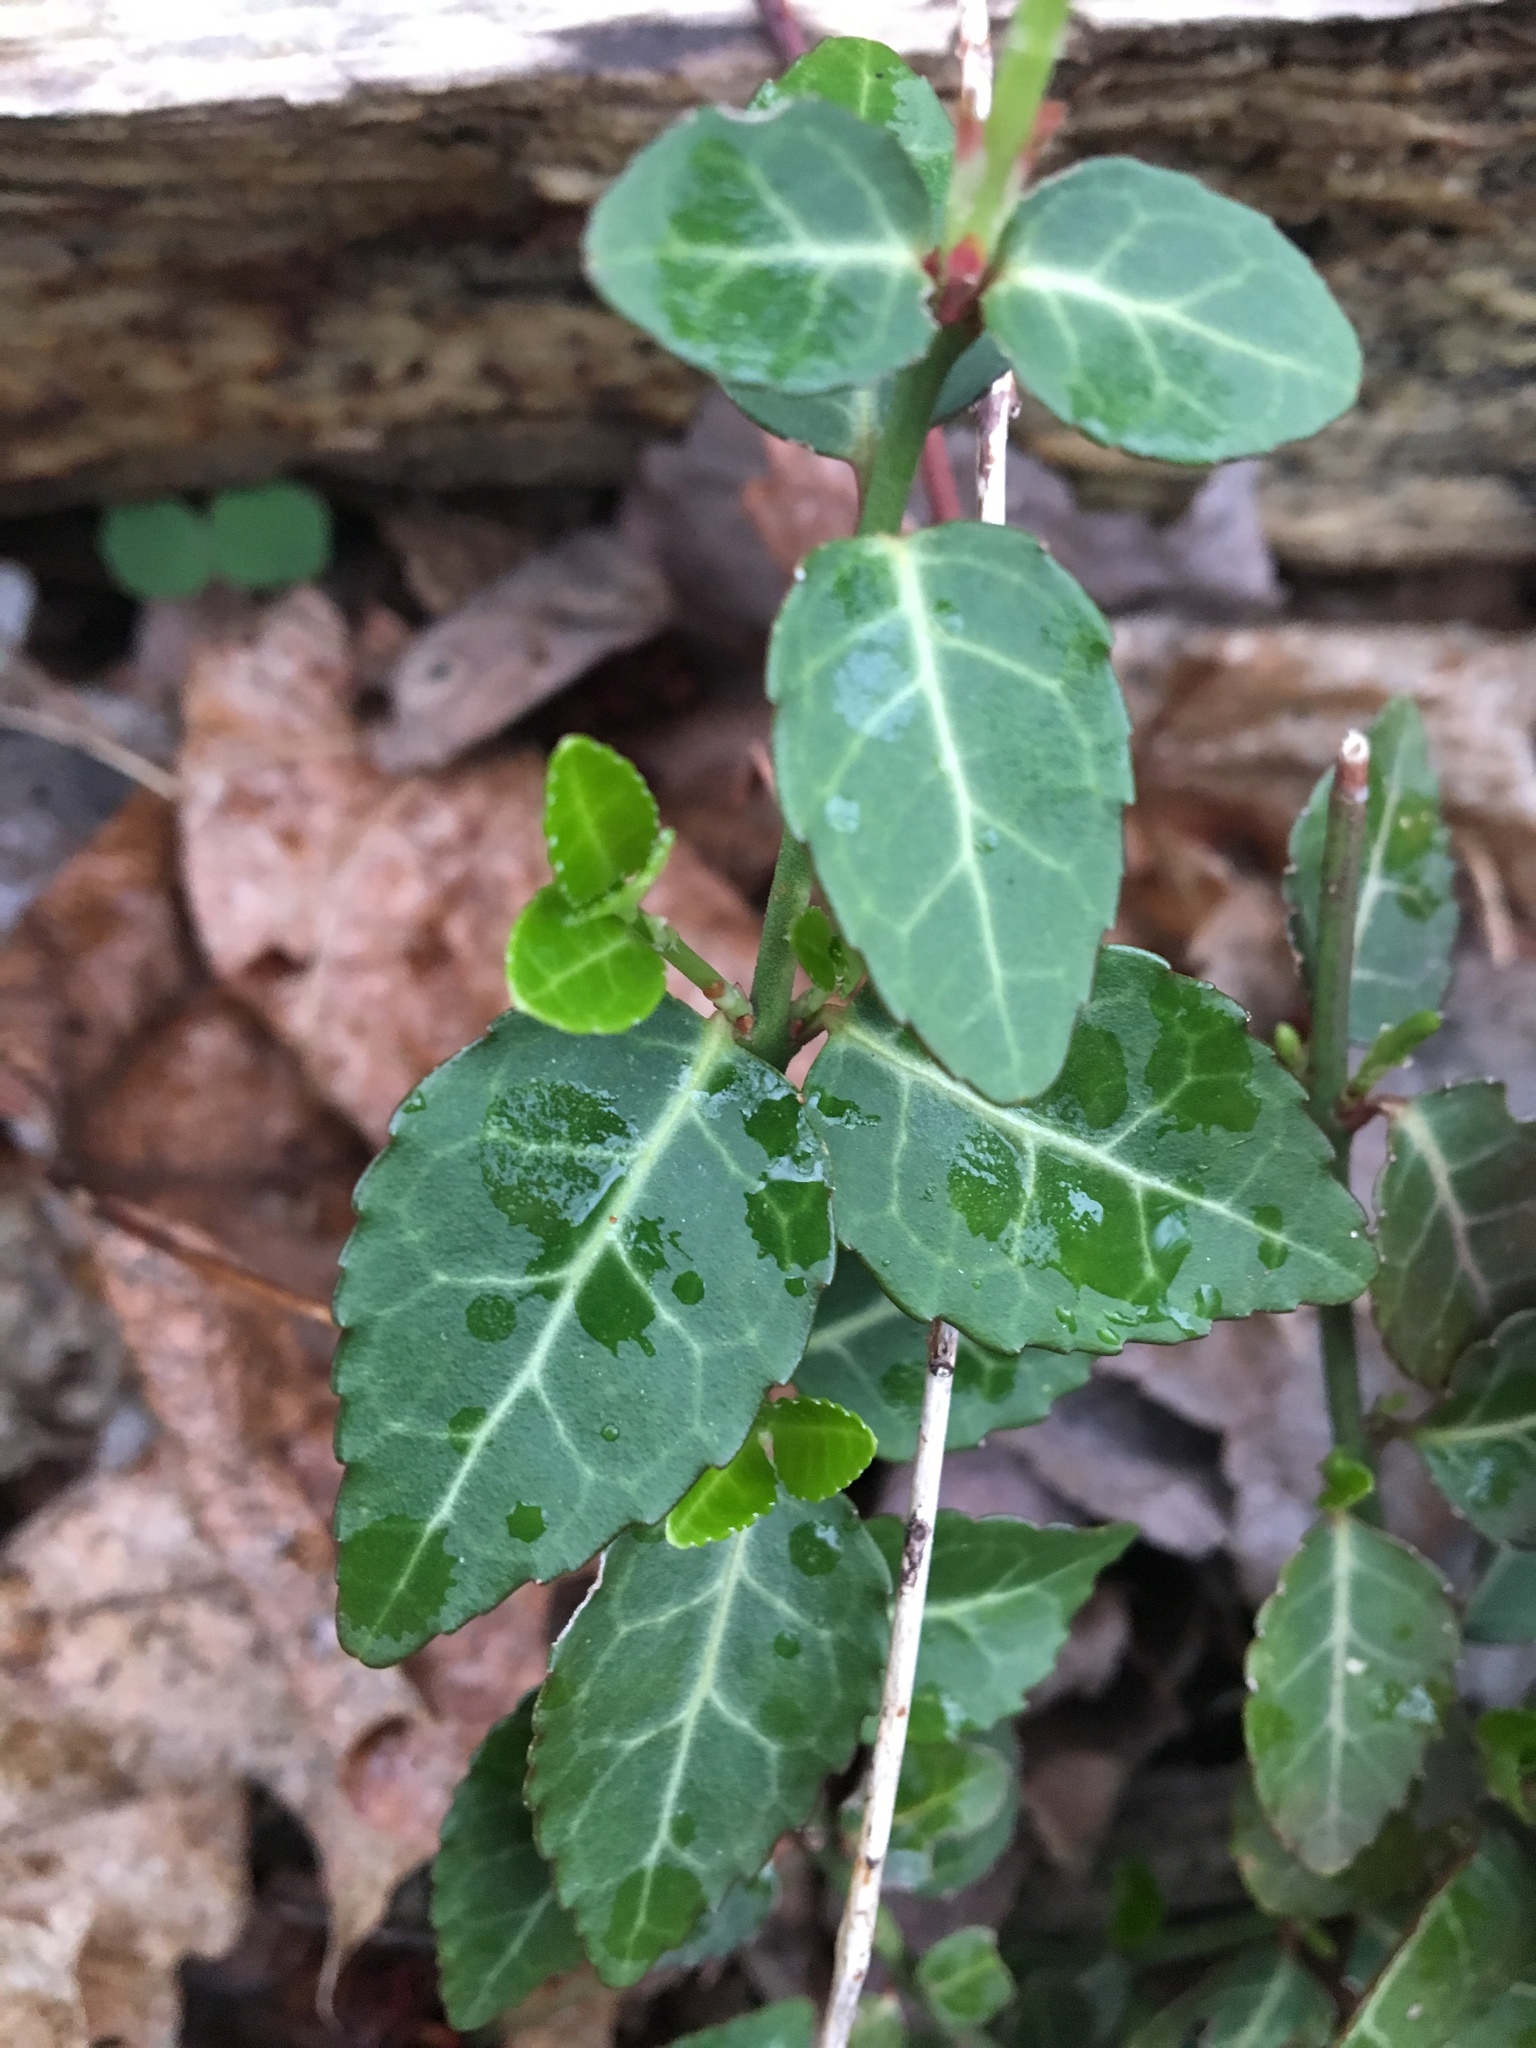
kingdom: Plantae
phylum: Tracheophyta
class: Magnoliopsida
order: Celastrales
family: Celastraceae
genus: Euonymus
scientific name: Euonymus fortunei
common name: Climbing euonymus
